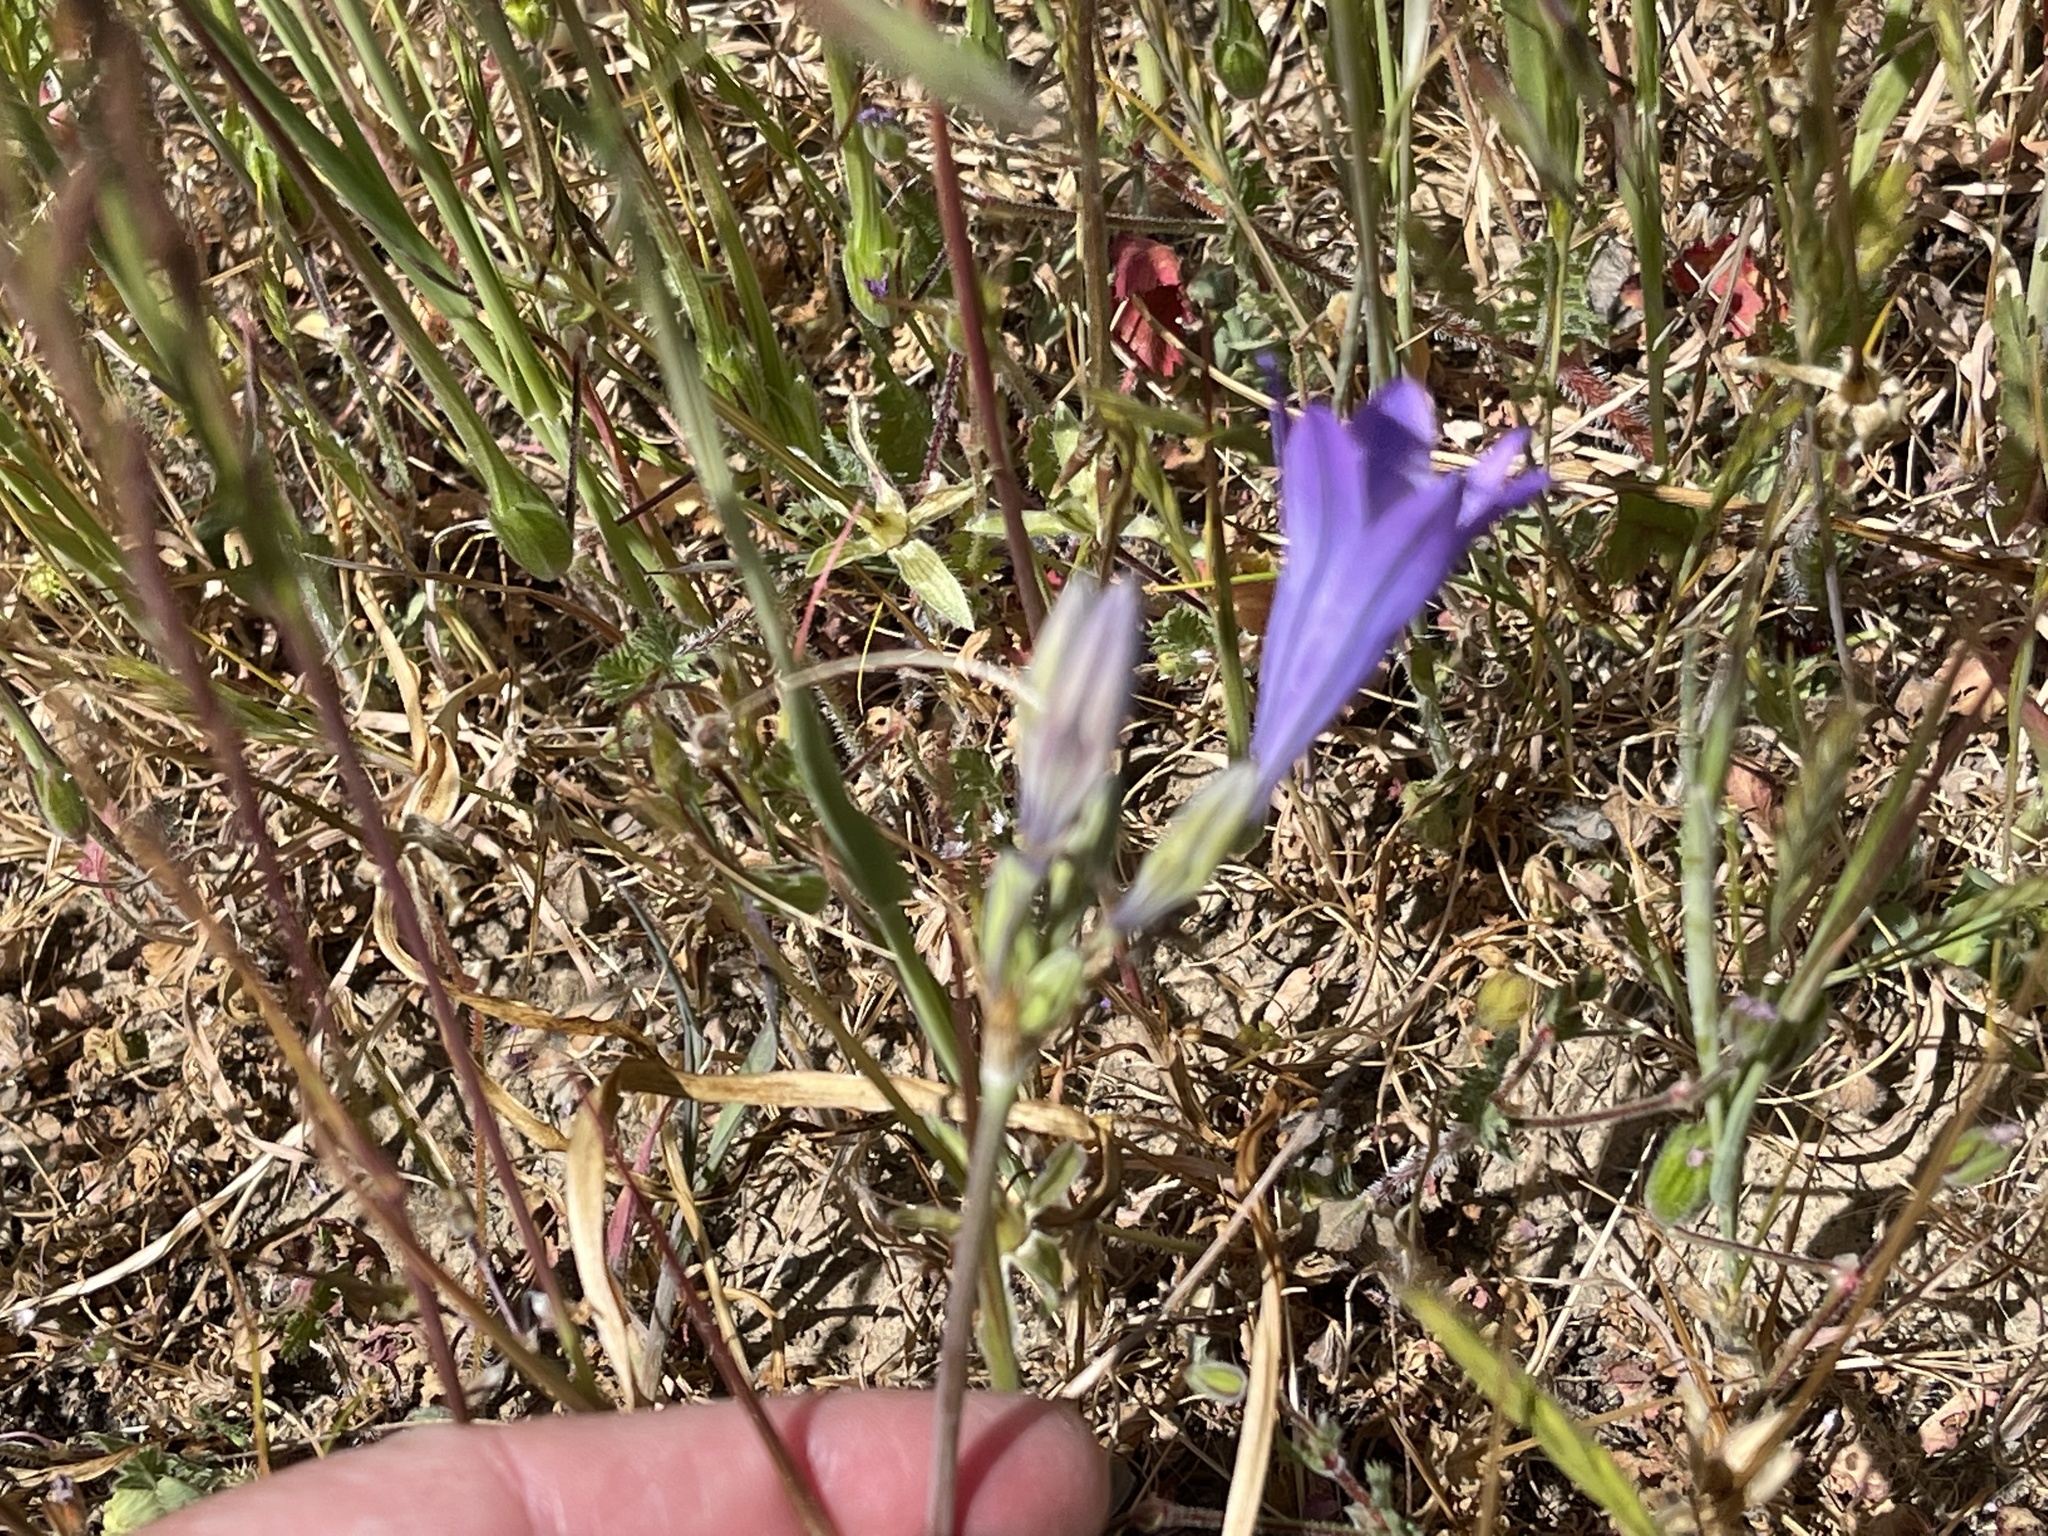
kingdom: Plantae
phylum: Tracheophyta
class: Liliopsida
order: Asparagales
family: Asparagaceae
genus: Triteleia
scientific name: Triteleia laxa
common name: Triplet-lily
